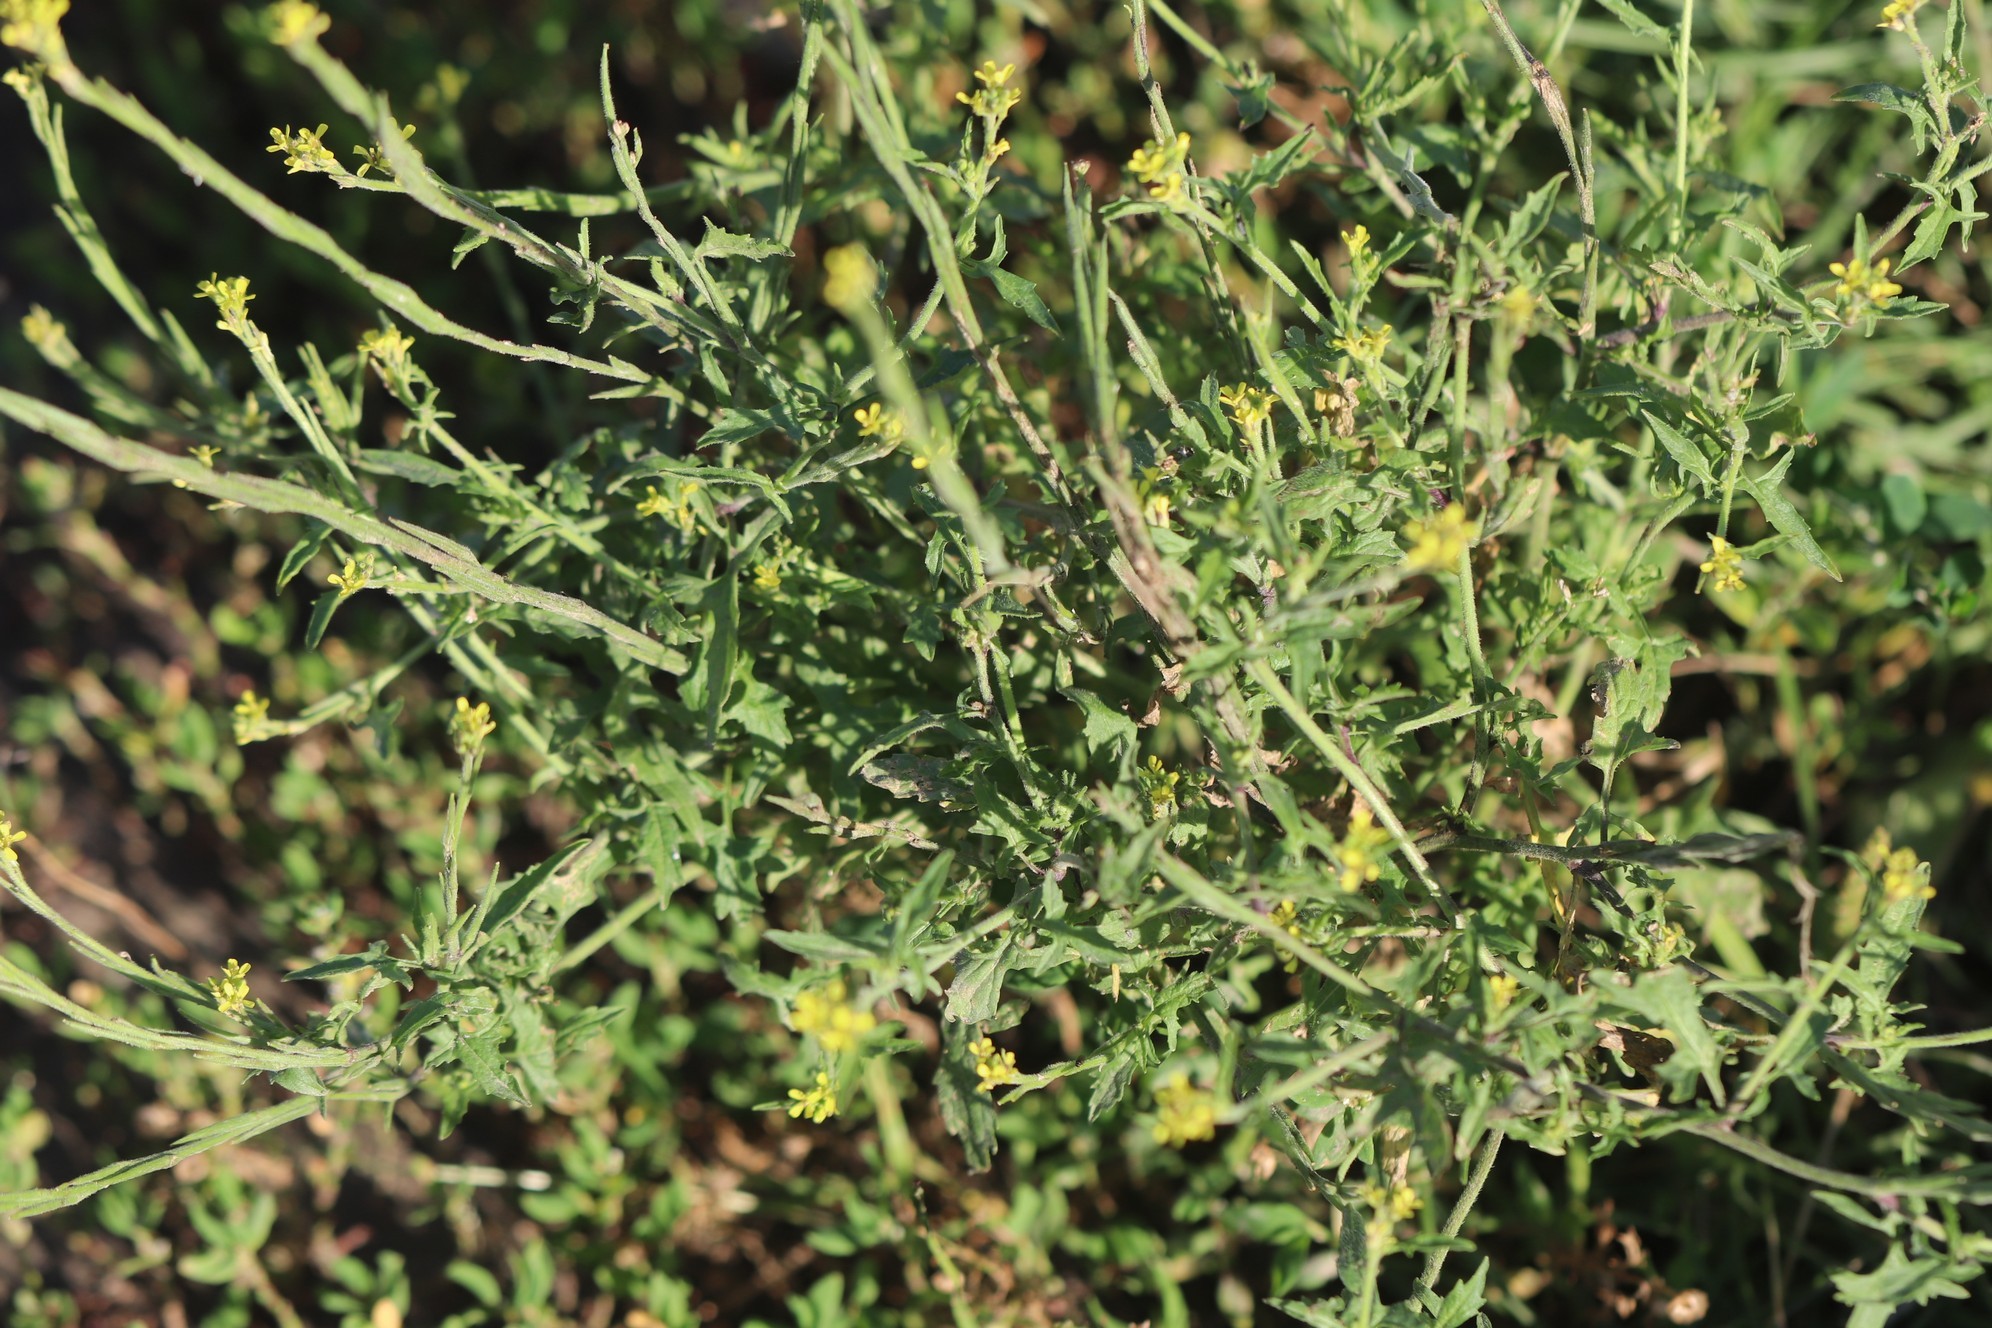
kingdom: Plantae
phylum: Tracheophyta
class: Magnoliopsida
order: Brassicales
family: Brassicaceae
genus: Sisymbrium
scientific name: Sisymbrium officinale
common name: Hedge mustard
